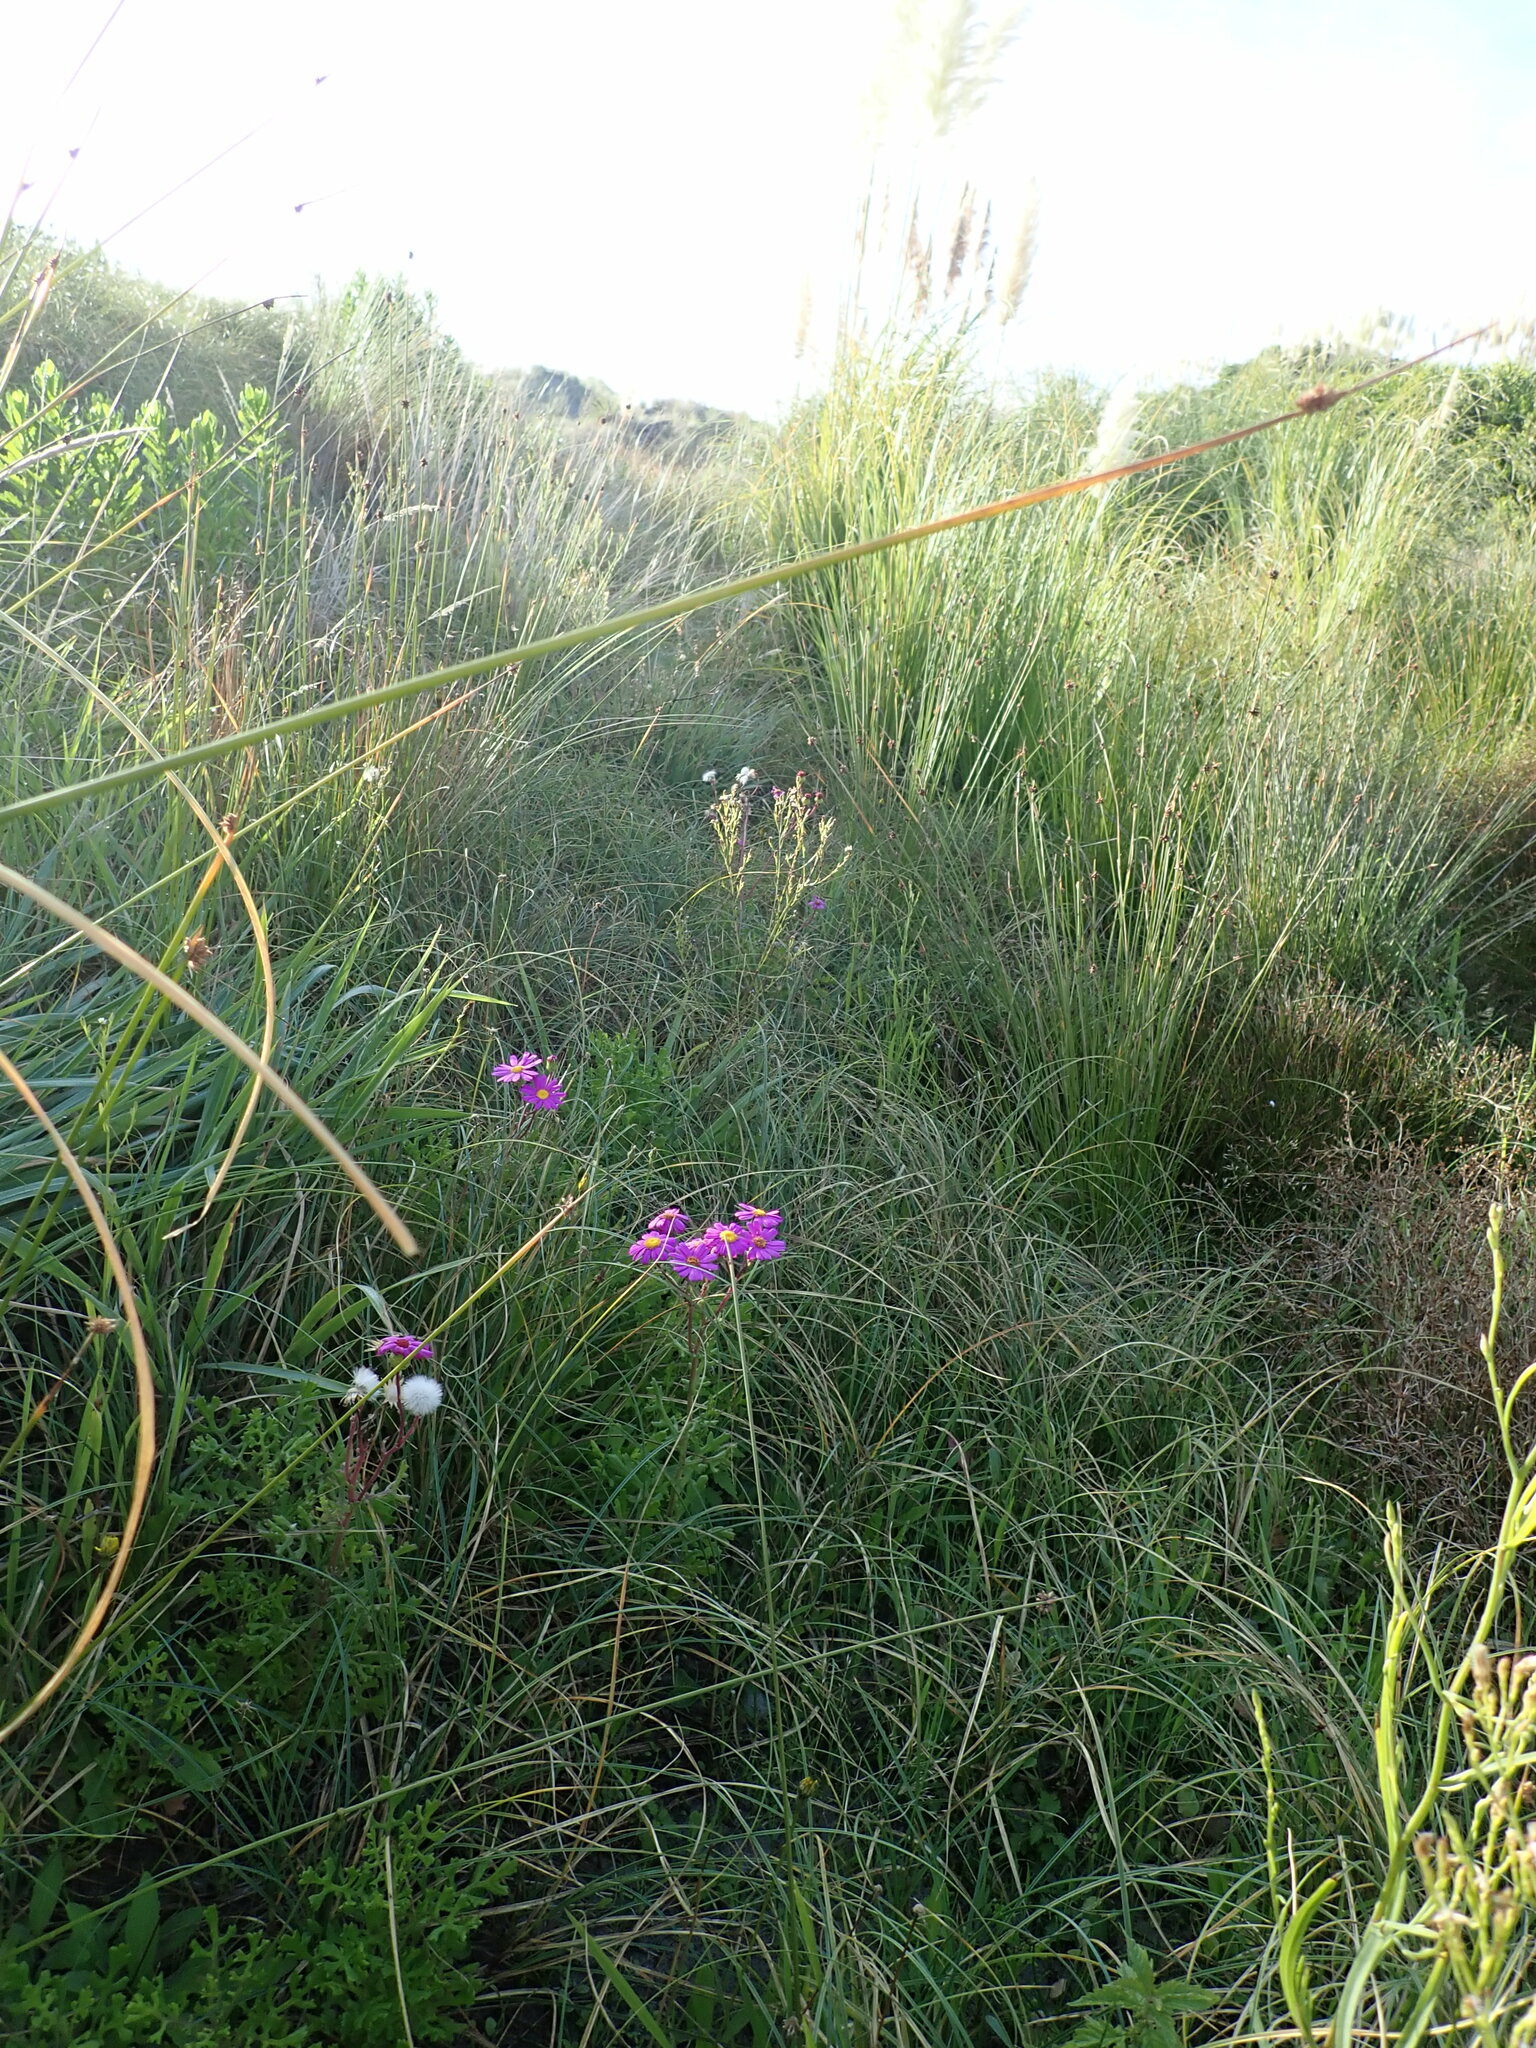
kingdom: Plantae
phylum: Tracheophyta
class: Magnoliopsida
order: Asterales
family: Asteraceae
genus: Senecio
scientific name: Senecio elegans
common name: Purple groundsel
